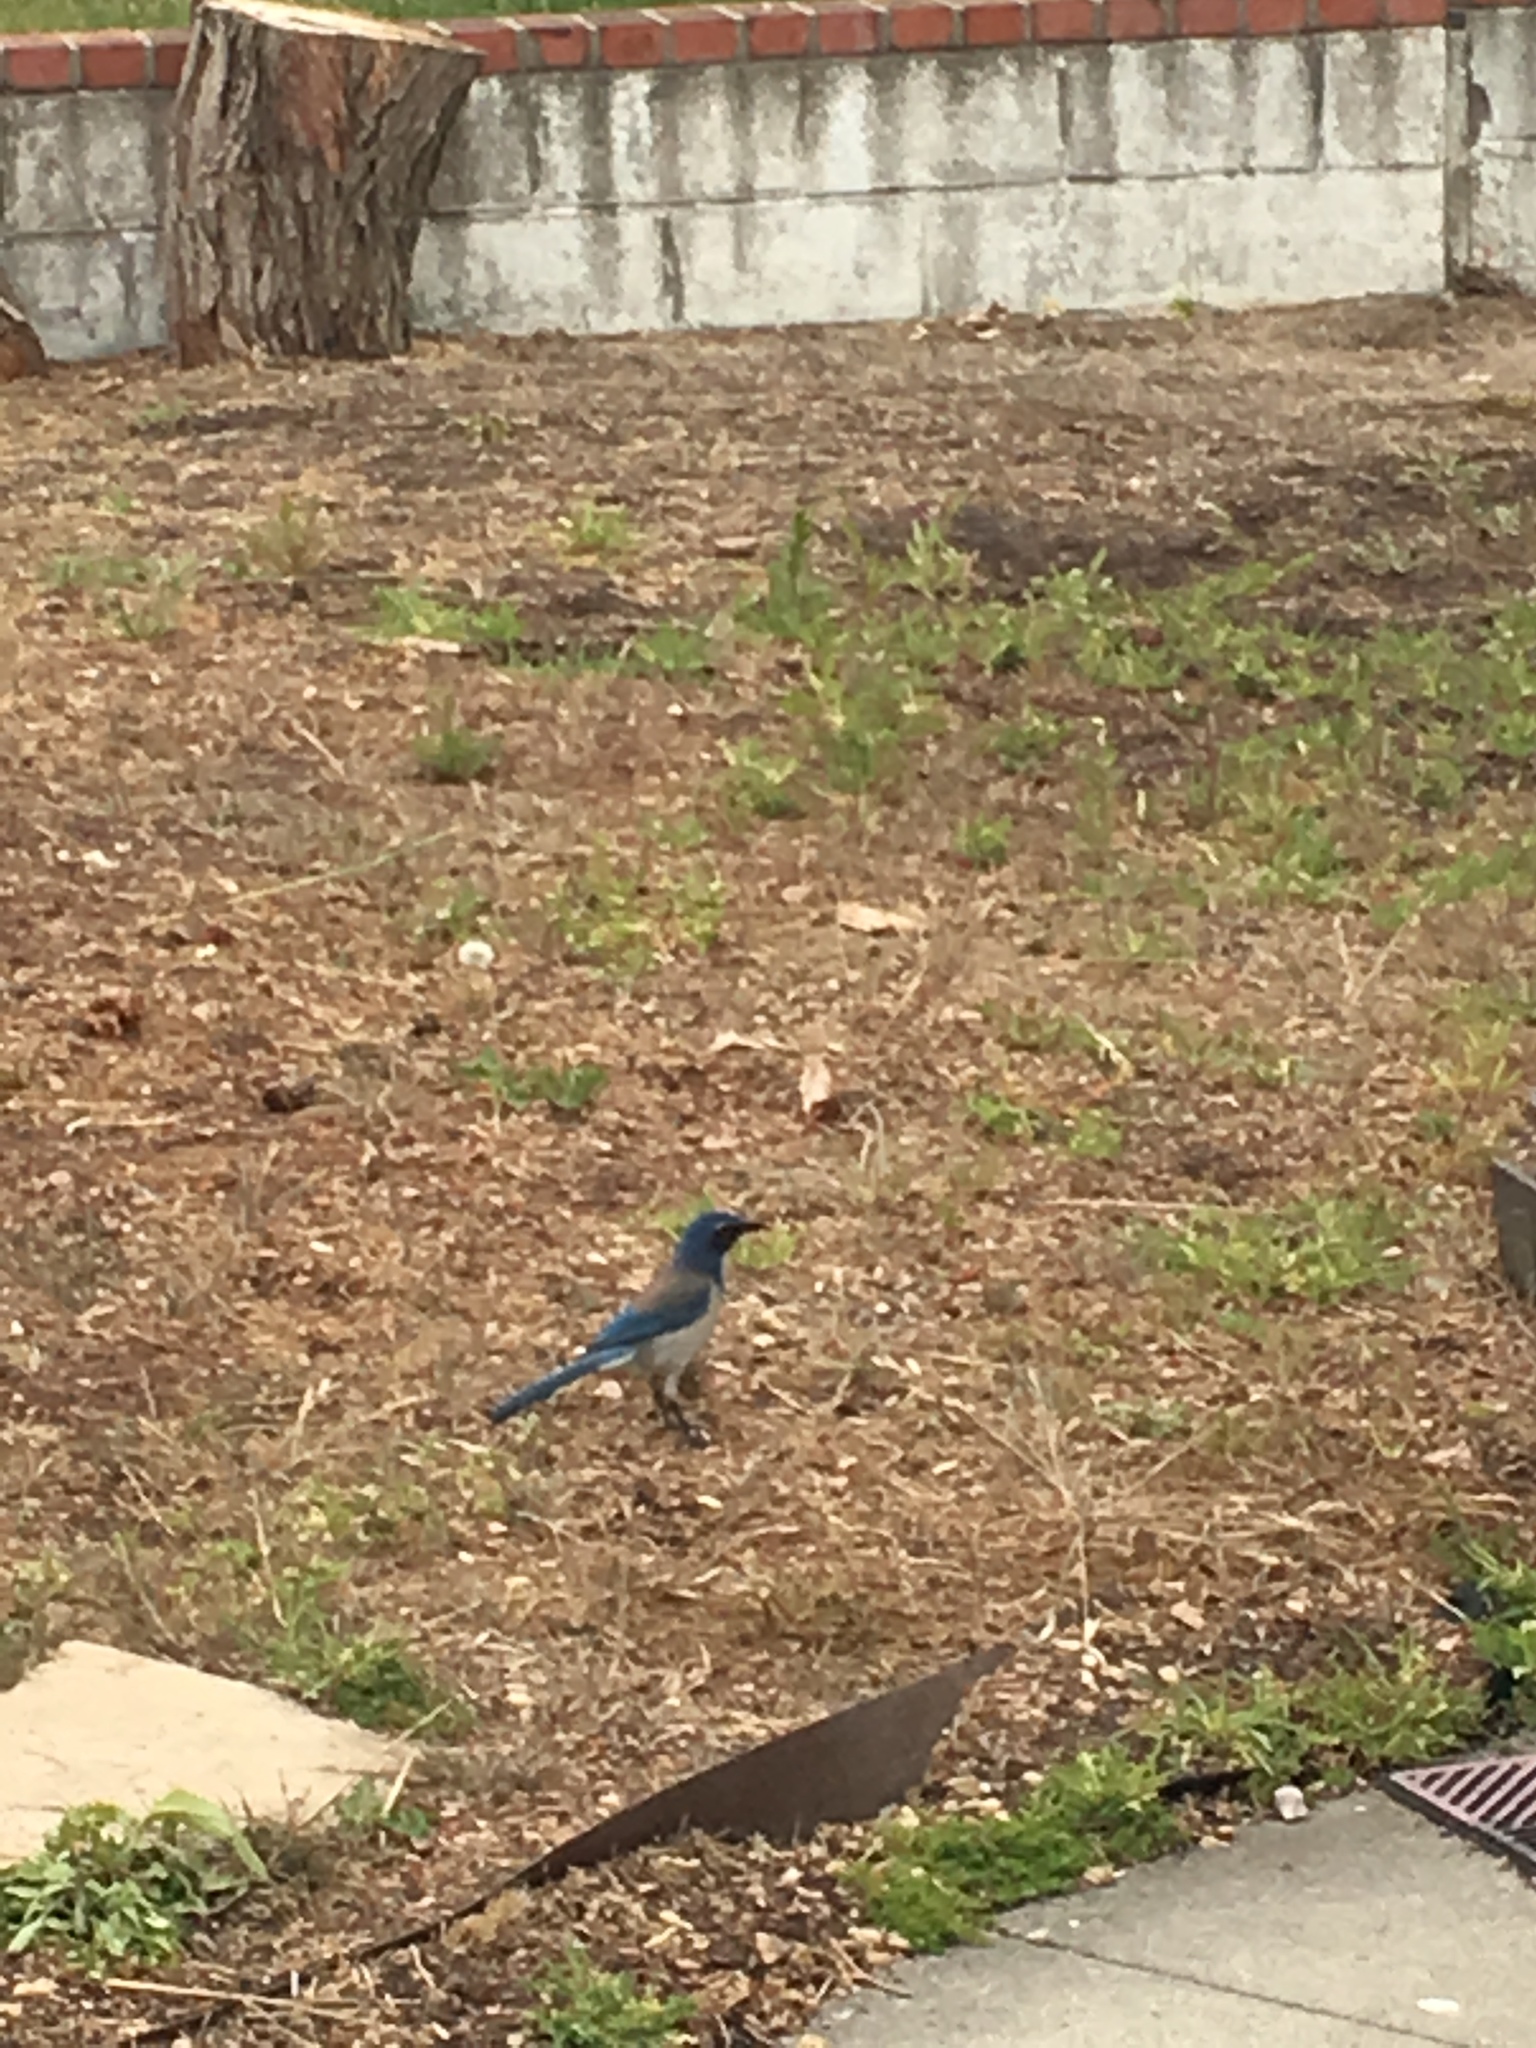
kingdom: Animalia
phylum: Chordata
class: Aves
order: Passeriformes
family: Corvidae
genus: Aphelocoma
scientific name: Aphelocoma californica
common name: California scrub-jay
